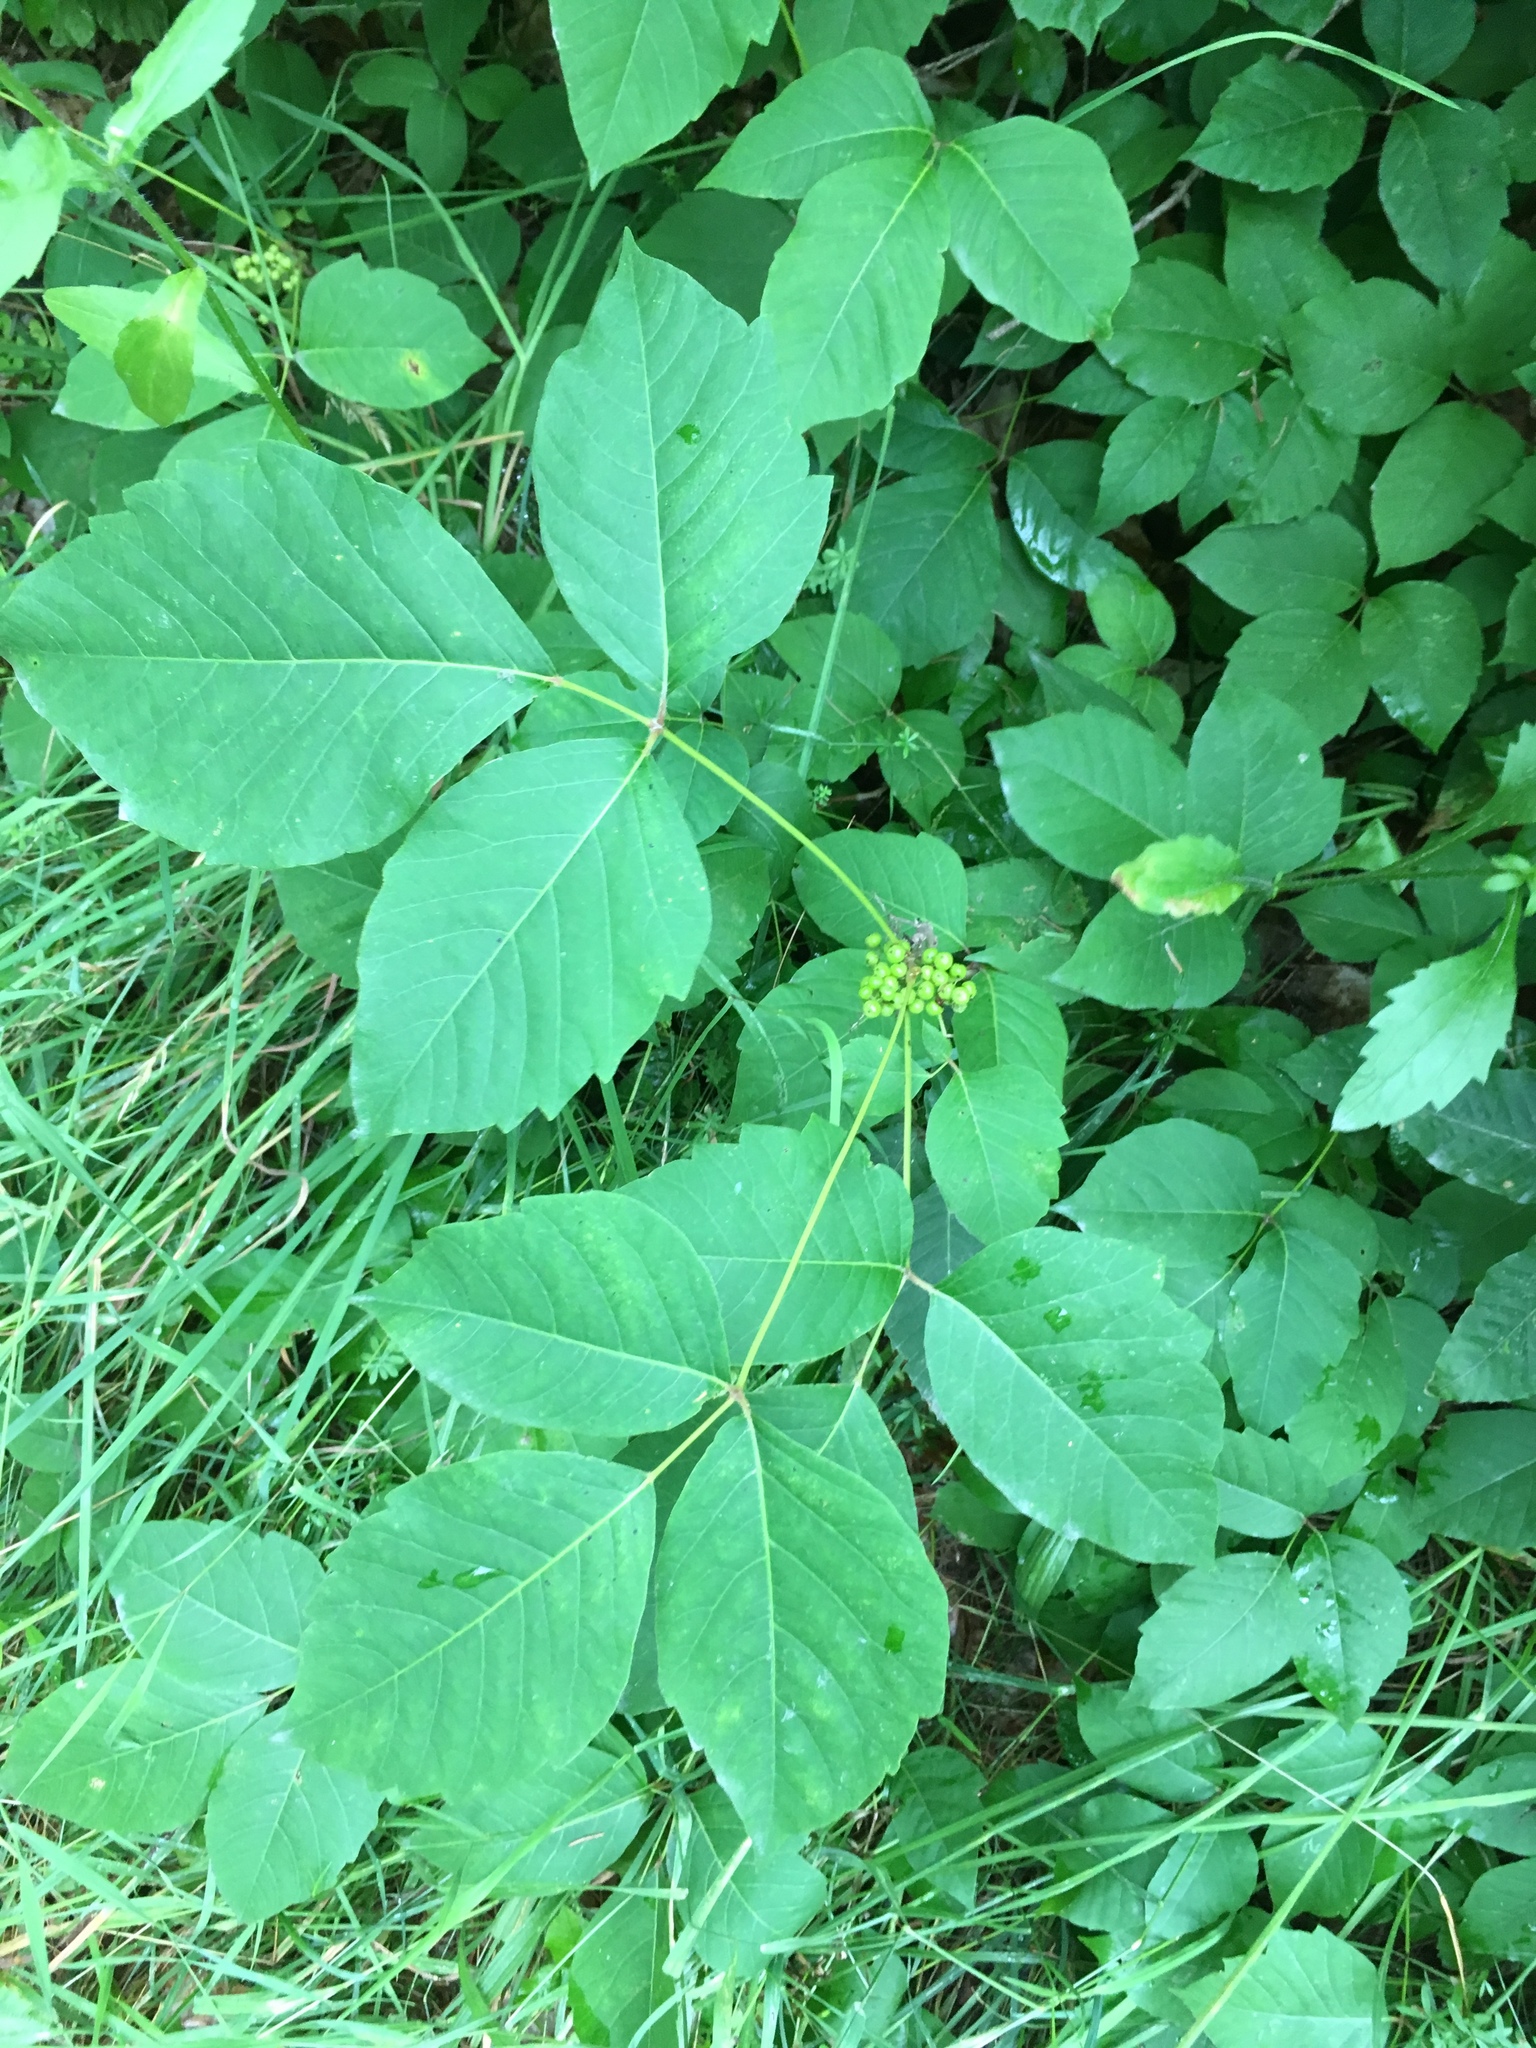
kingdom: Plantae
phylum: Tracheophyta
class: Magnoliopsida
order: Sapindales
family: Anacardiaceae
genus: Toxicodendron
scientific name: Toxicodendron rydbergii
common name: Rydberg's poison-ivy
